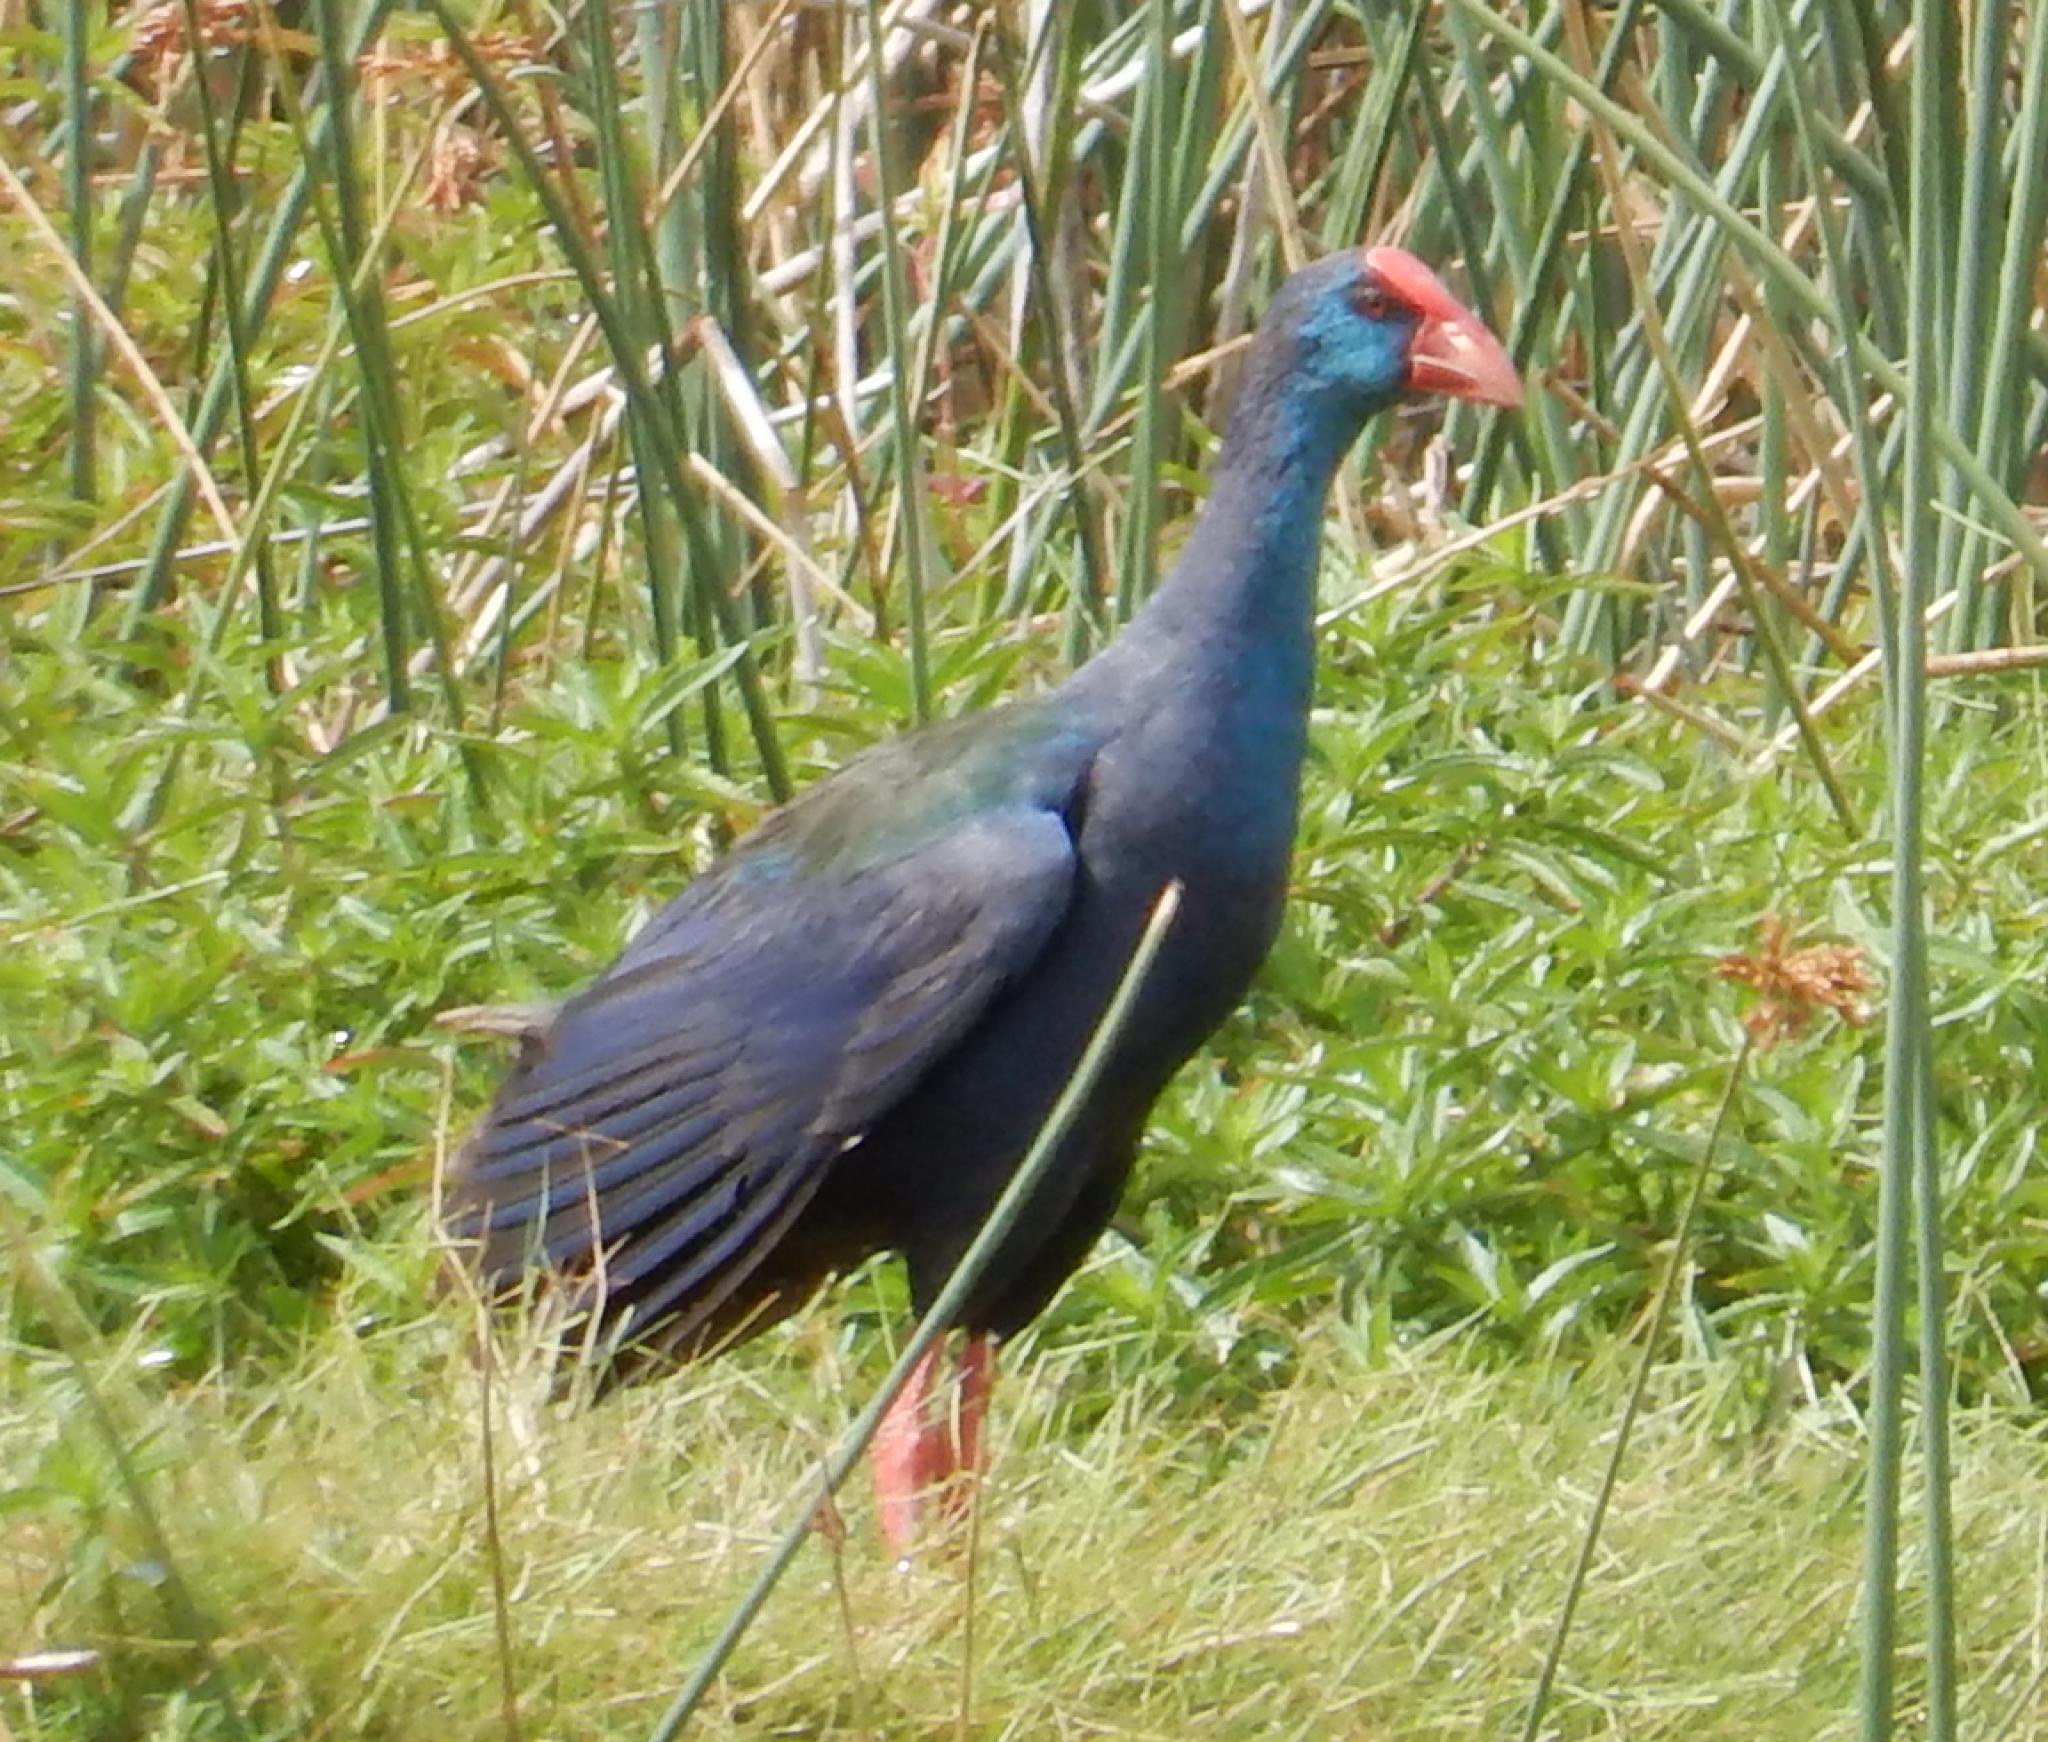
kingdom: Animalia
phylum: Chordata
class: Aves
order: Gruiformes
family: Rallidae
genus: Porphyrio
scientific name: Porphyrio porphyrio
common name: Purple swamphen
